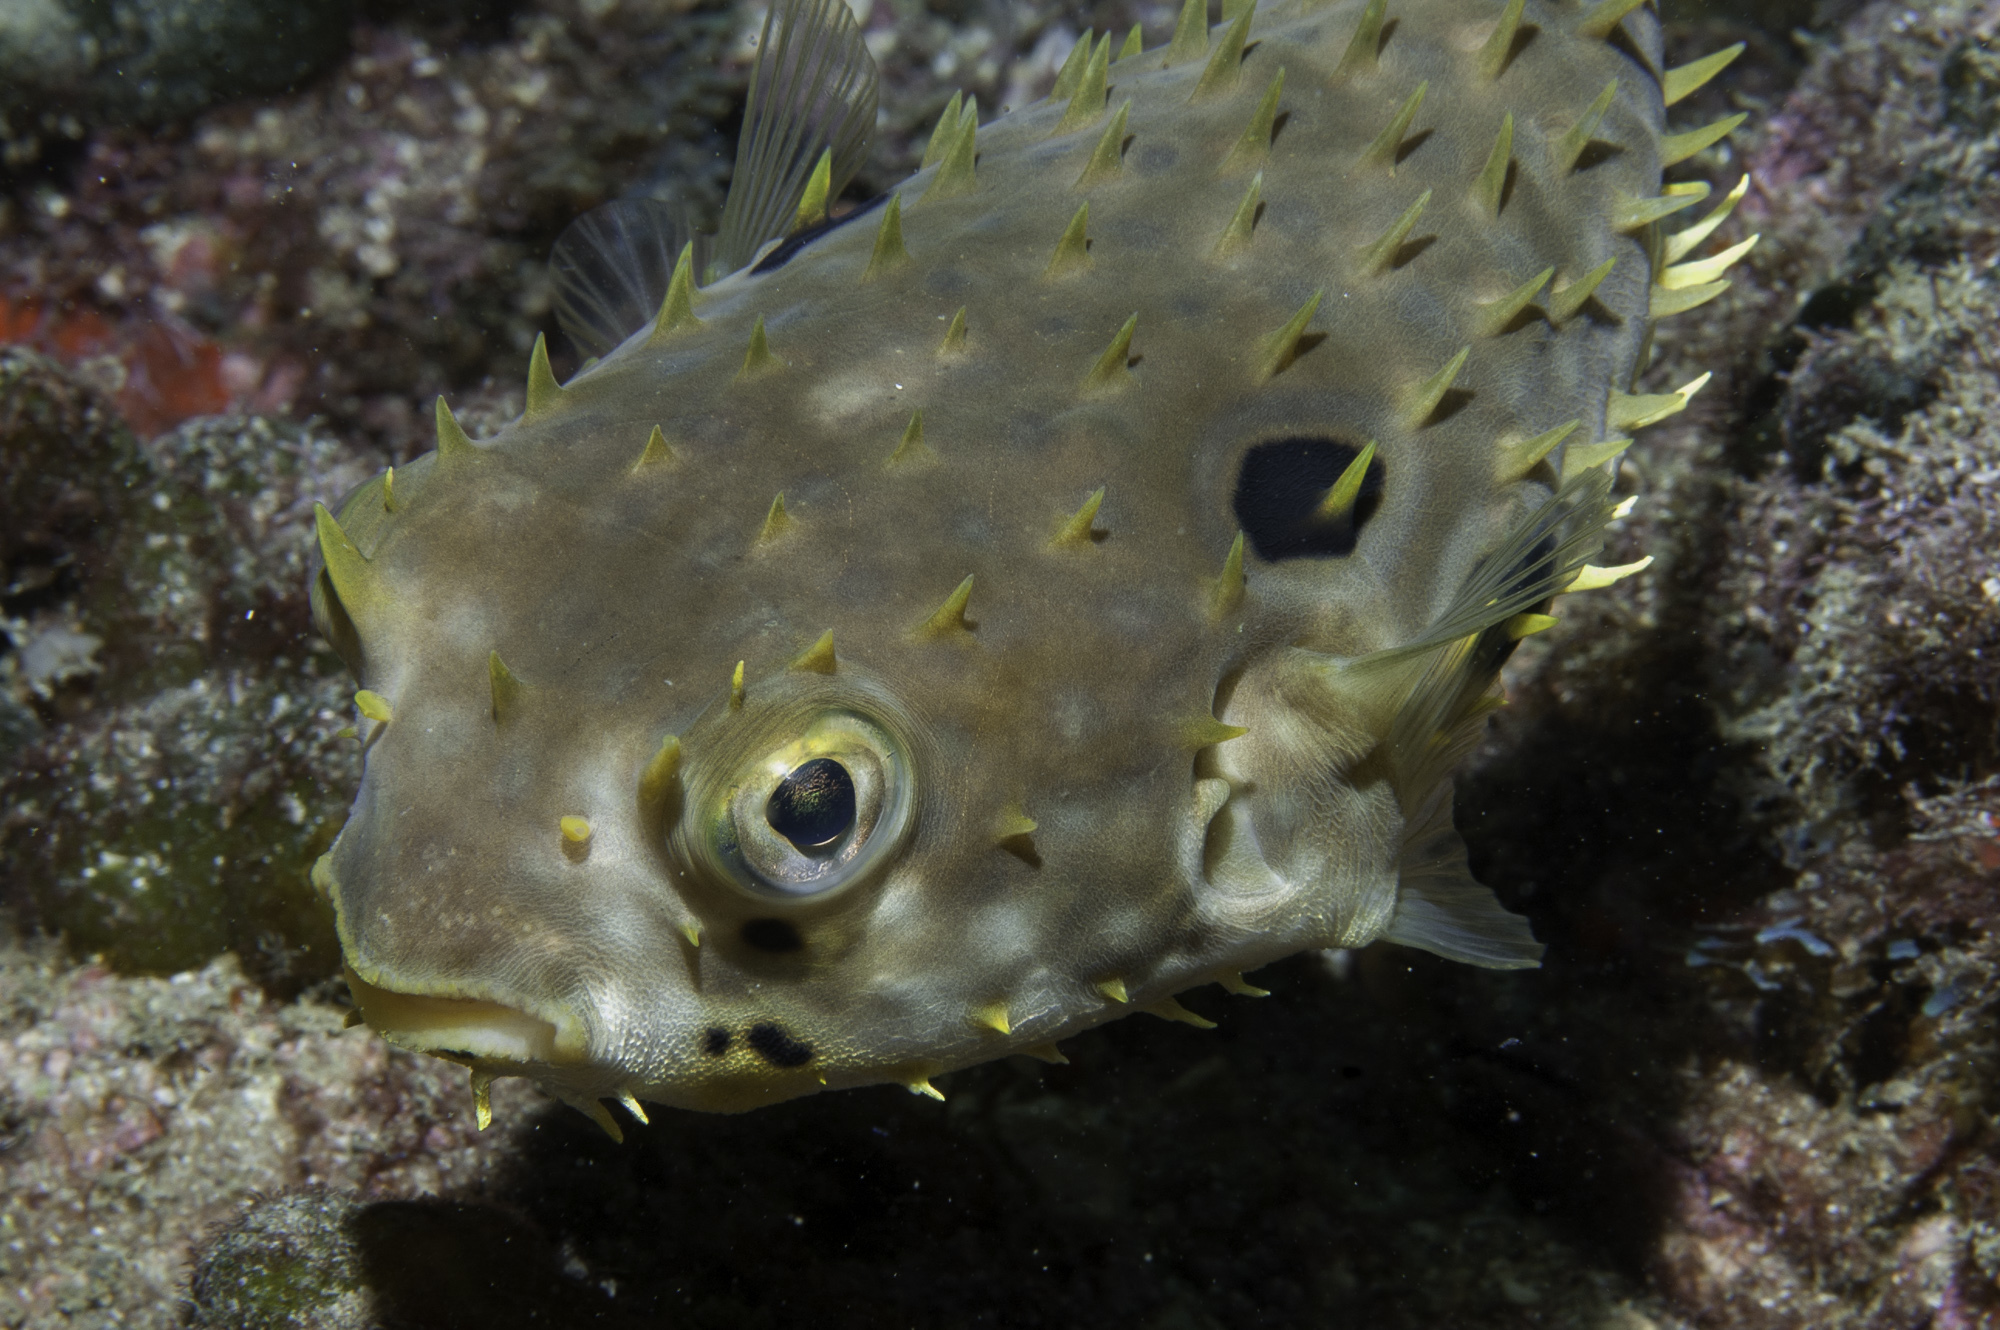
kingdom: Animalia
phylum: Chordata
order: Tetraodontiformes
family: Diodontidae
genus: Chilomycterus
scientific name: Chilomycterus spinosus
